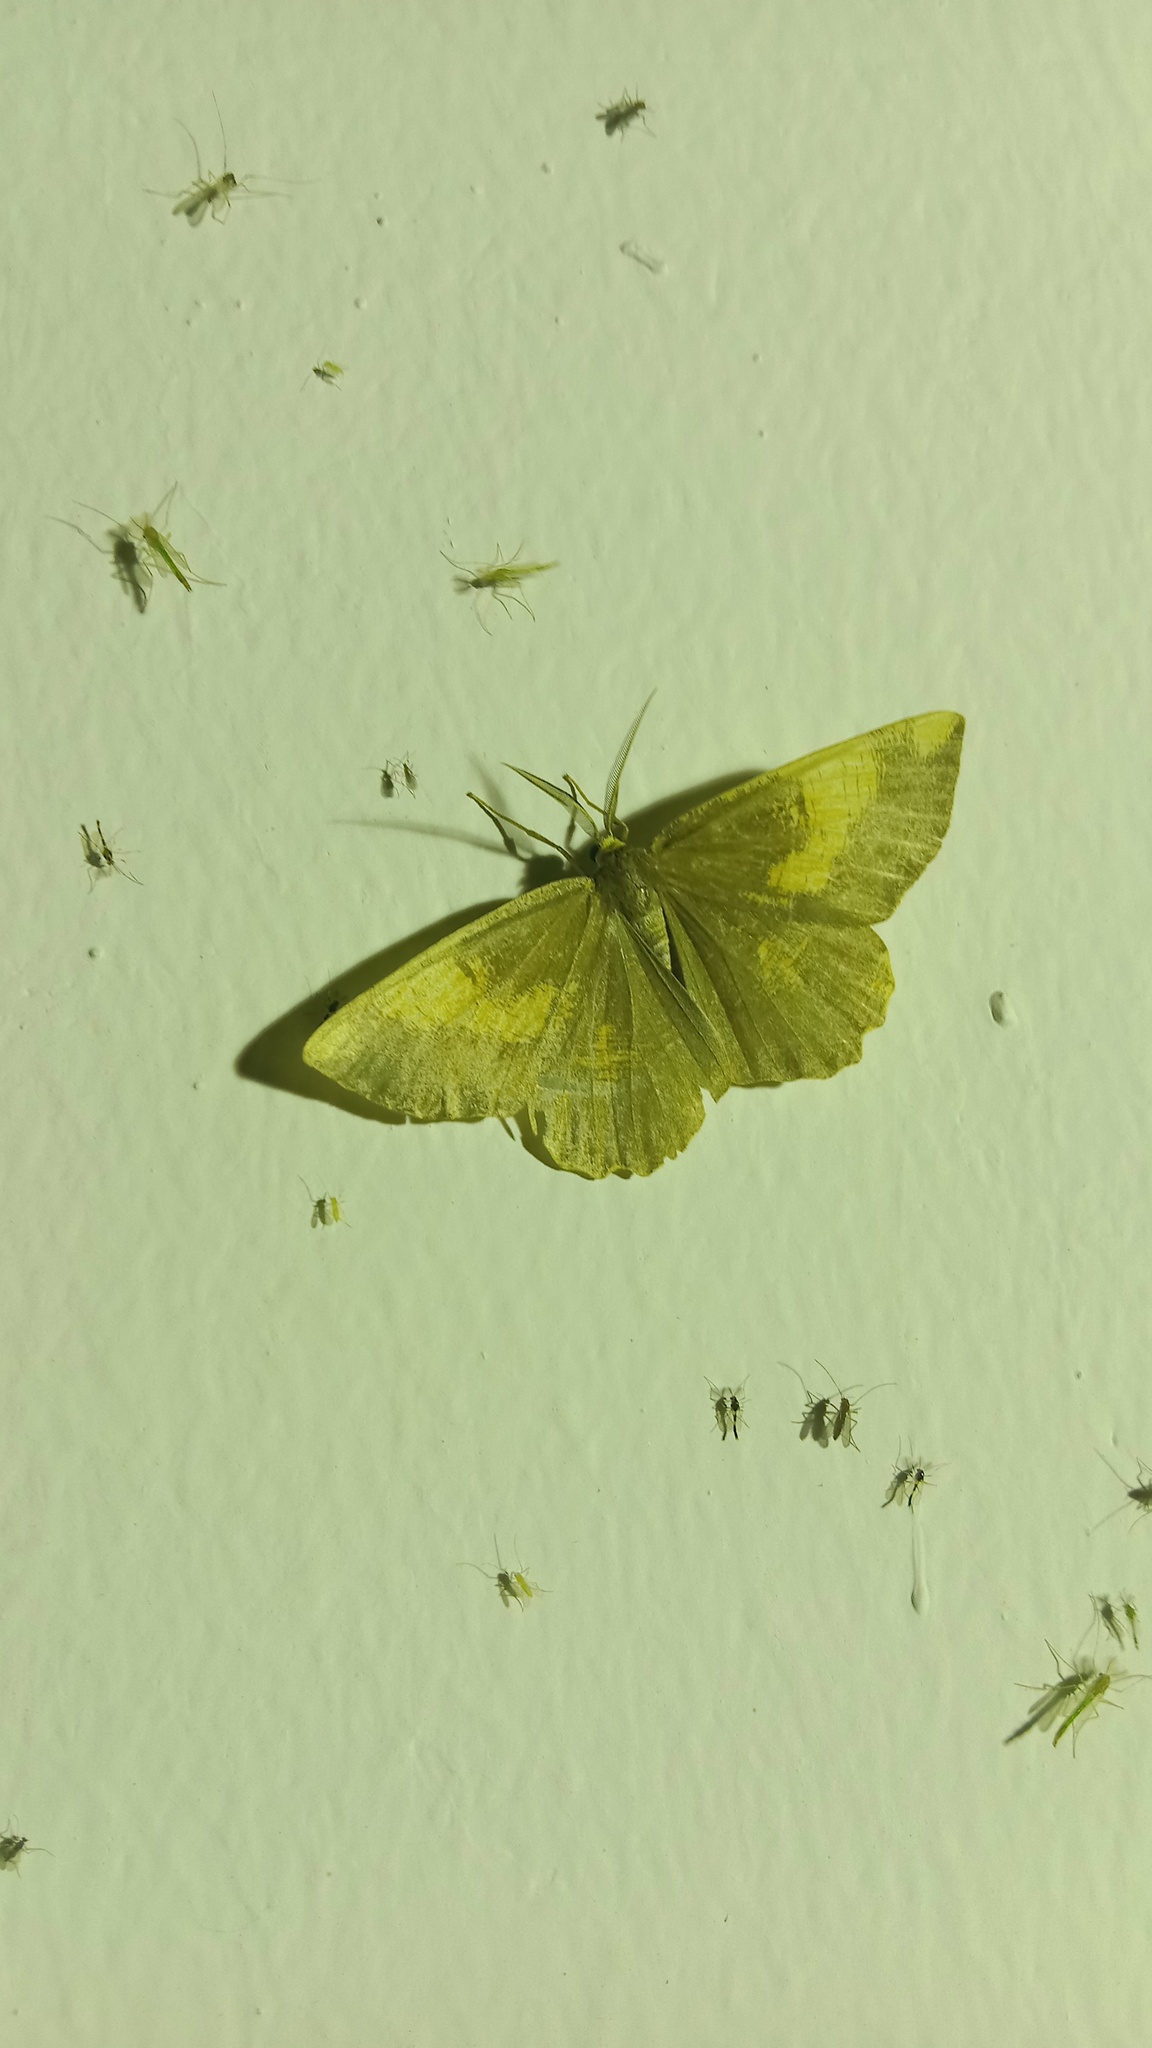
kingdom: Animalia
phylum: Arthropoda
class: Insecta
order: Lepidoptera
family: Geometridae
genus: Angerona
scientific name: Angerona prunaria
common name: Orange moth
